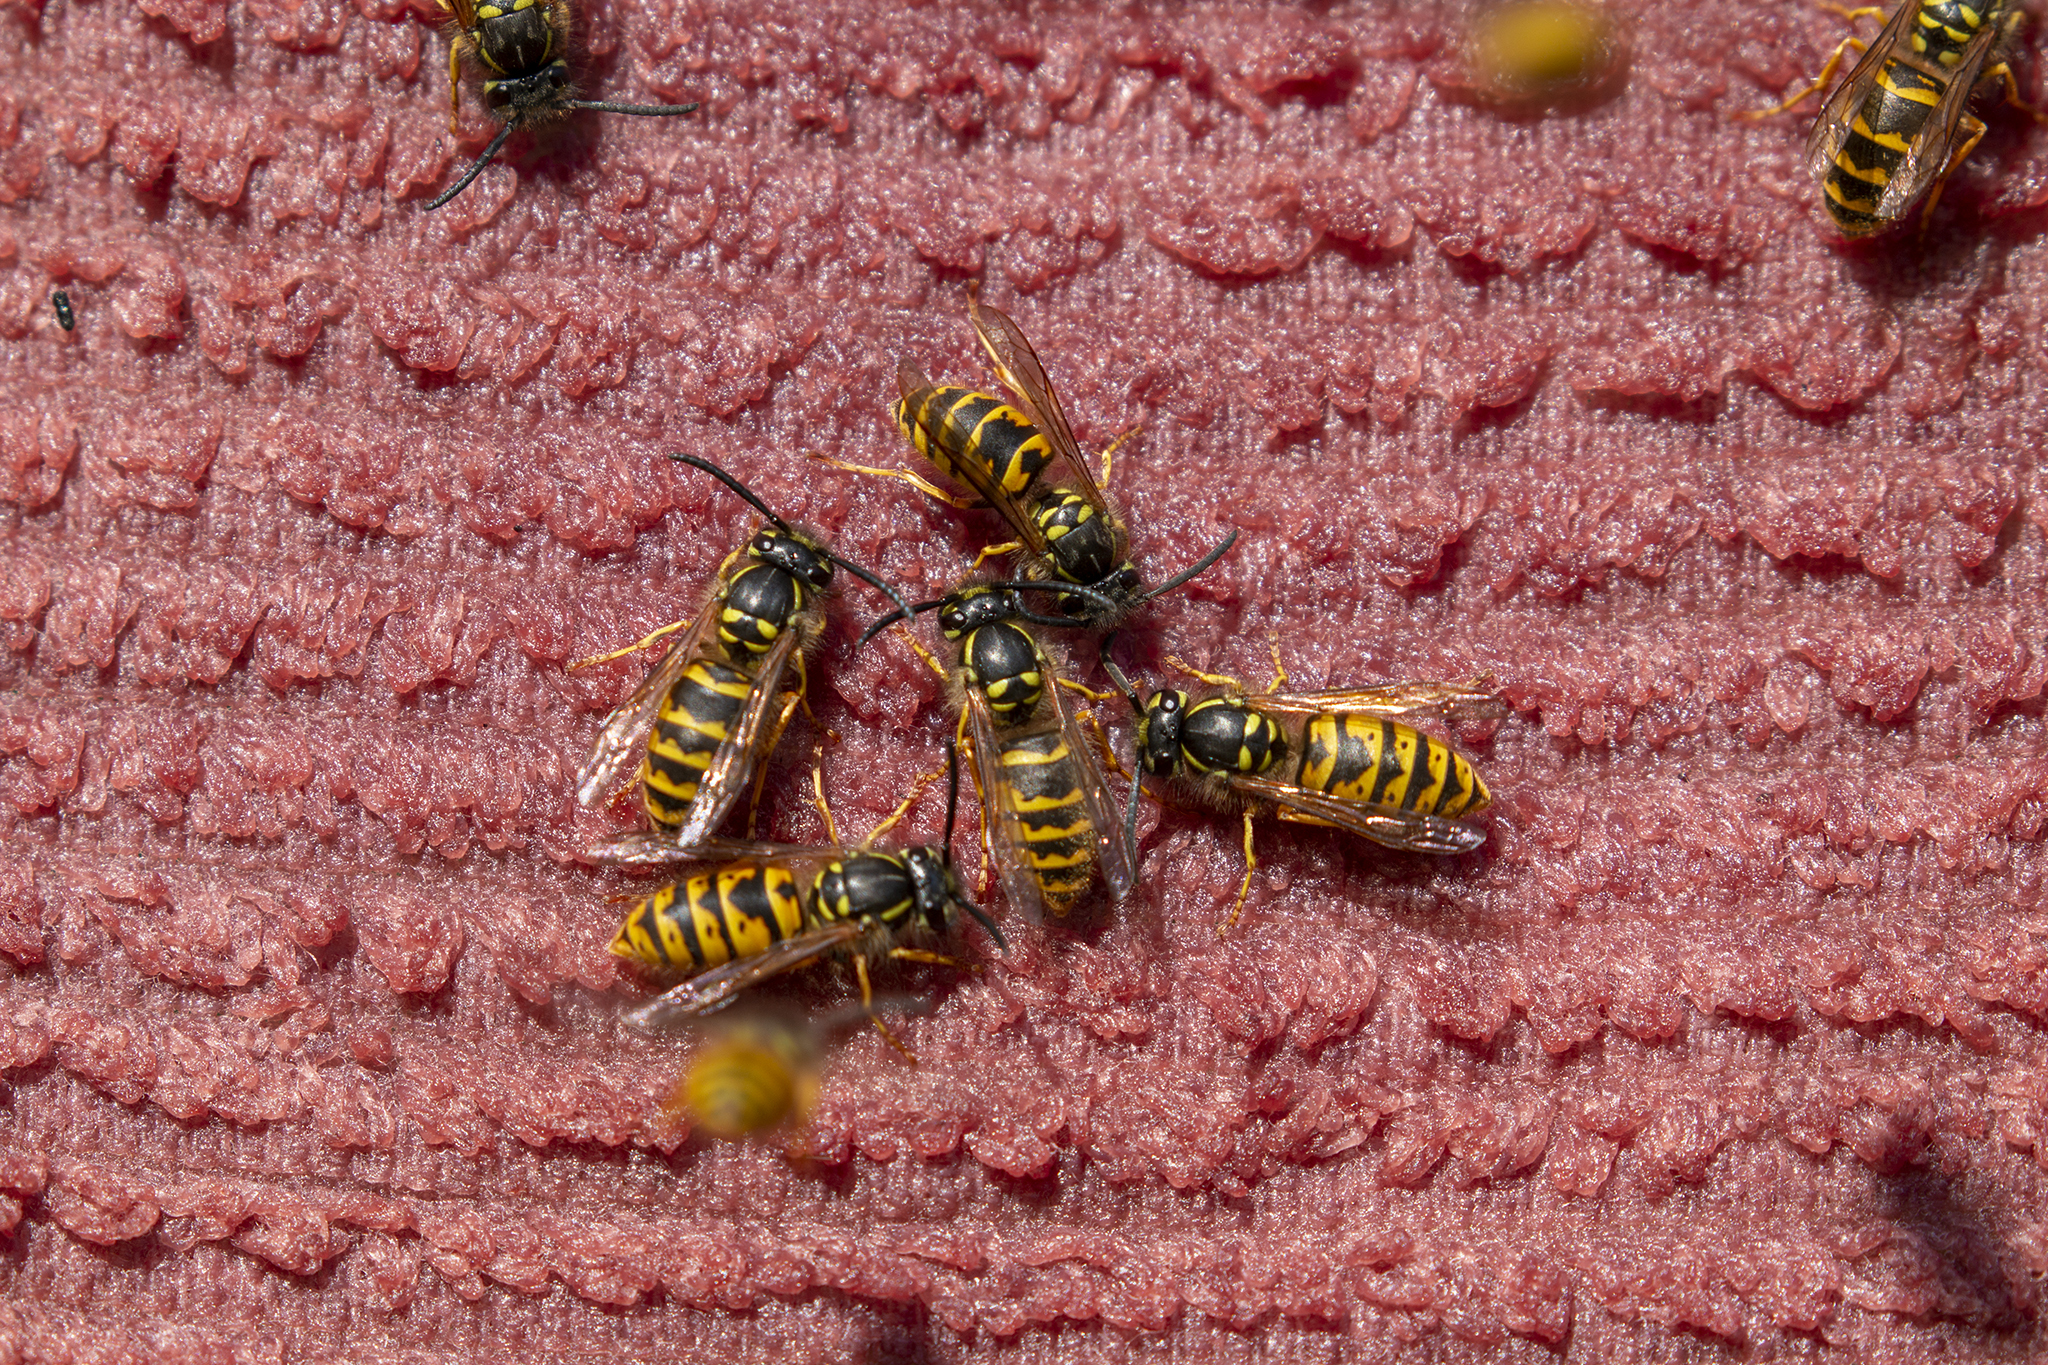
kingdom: Animalia
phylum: Arthropoda
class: Insecta
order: Hymenoptera
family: Vespidae
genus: Vespula
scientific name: Vespula vulgaris
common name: Common wasp
